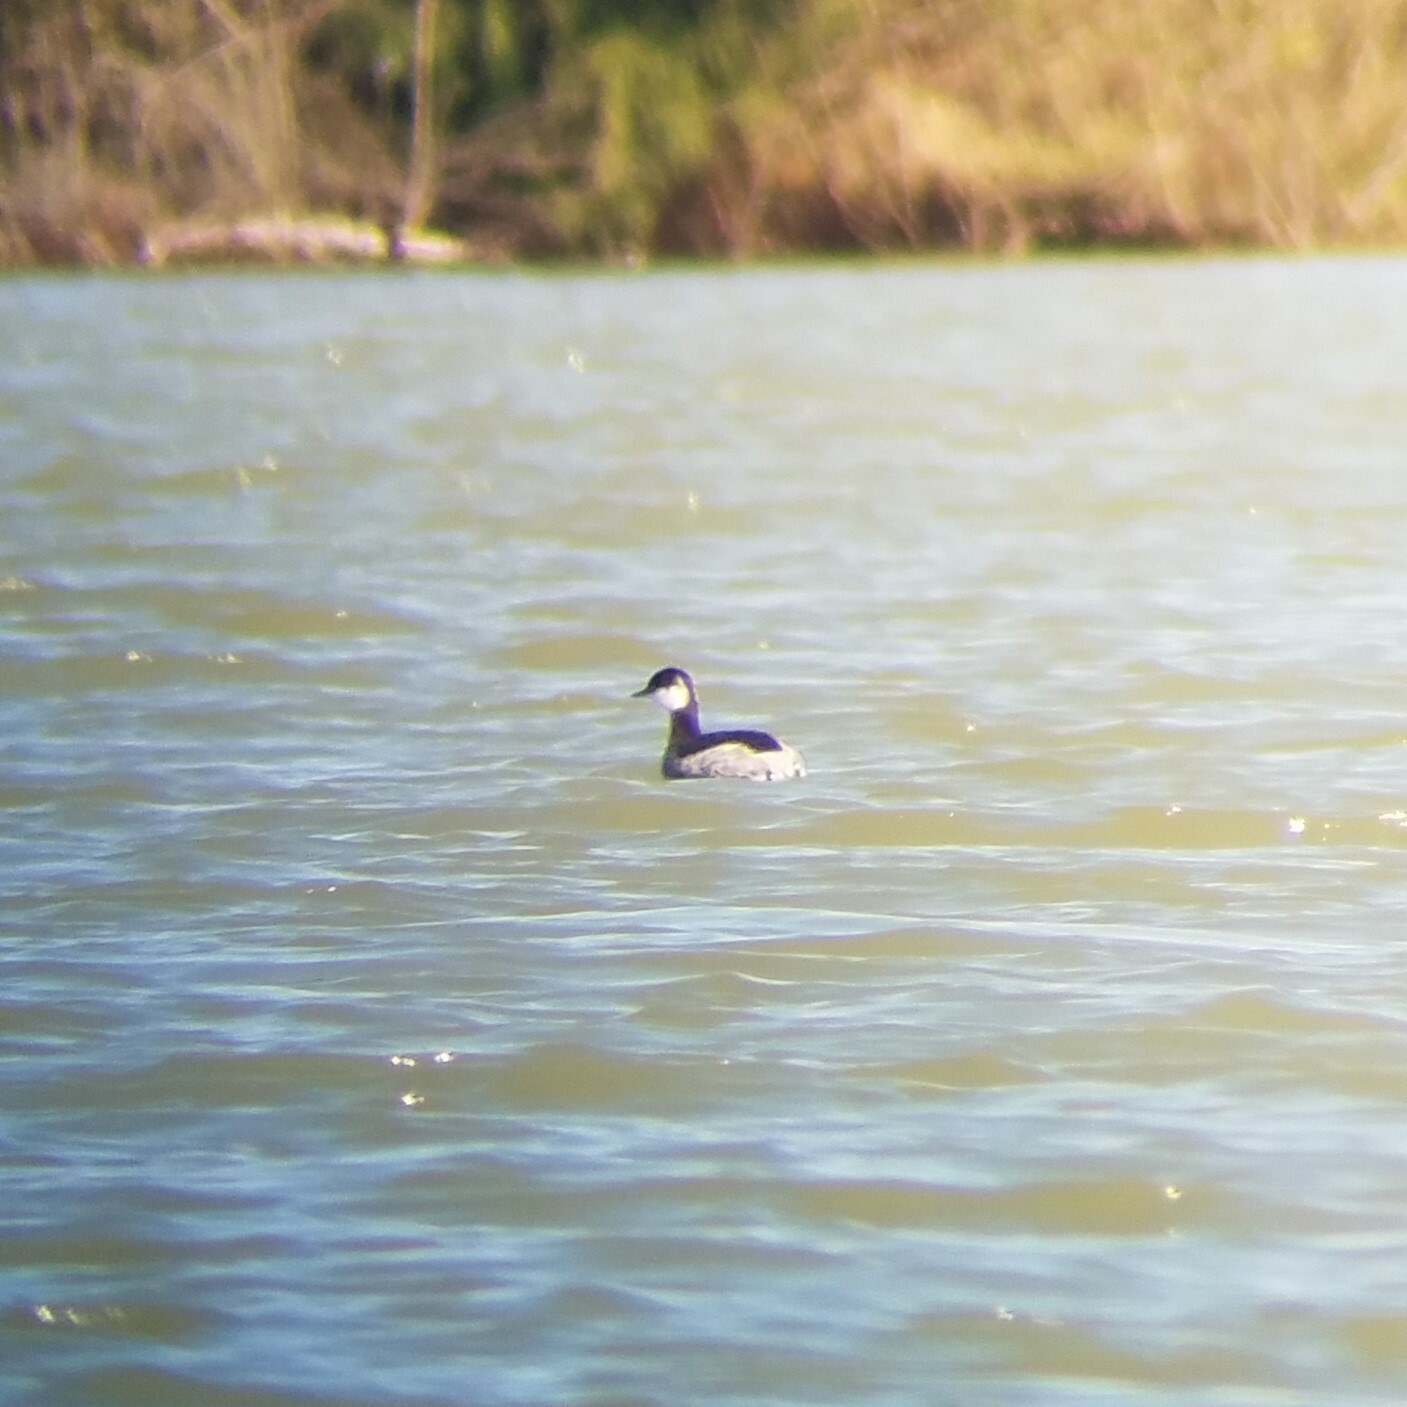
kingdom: Animalia
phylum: Chordata
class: Aves
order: Podicipediformes
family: Podicipedidae
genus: Podiceps
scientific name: Podiceps auritus
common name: Horned grebe
